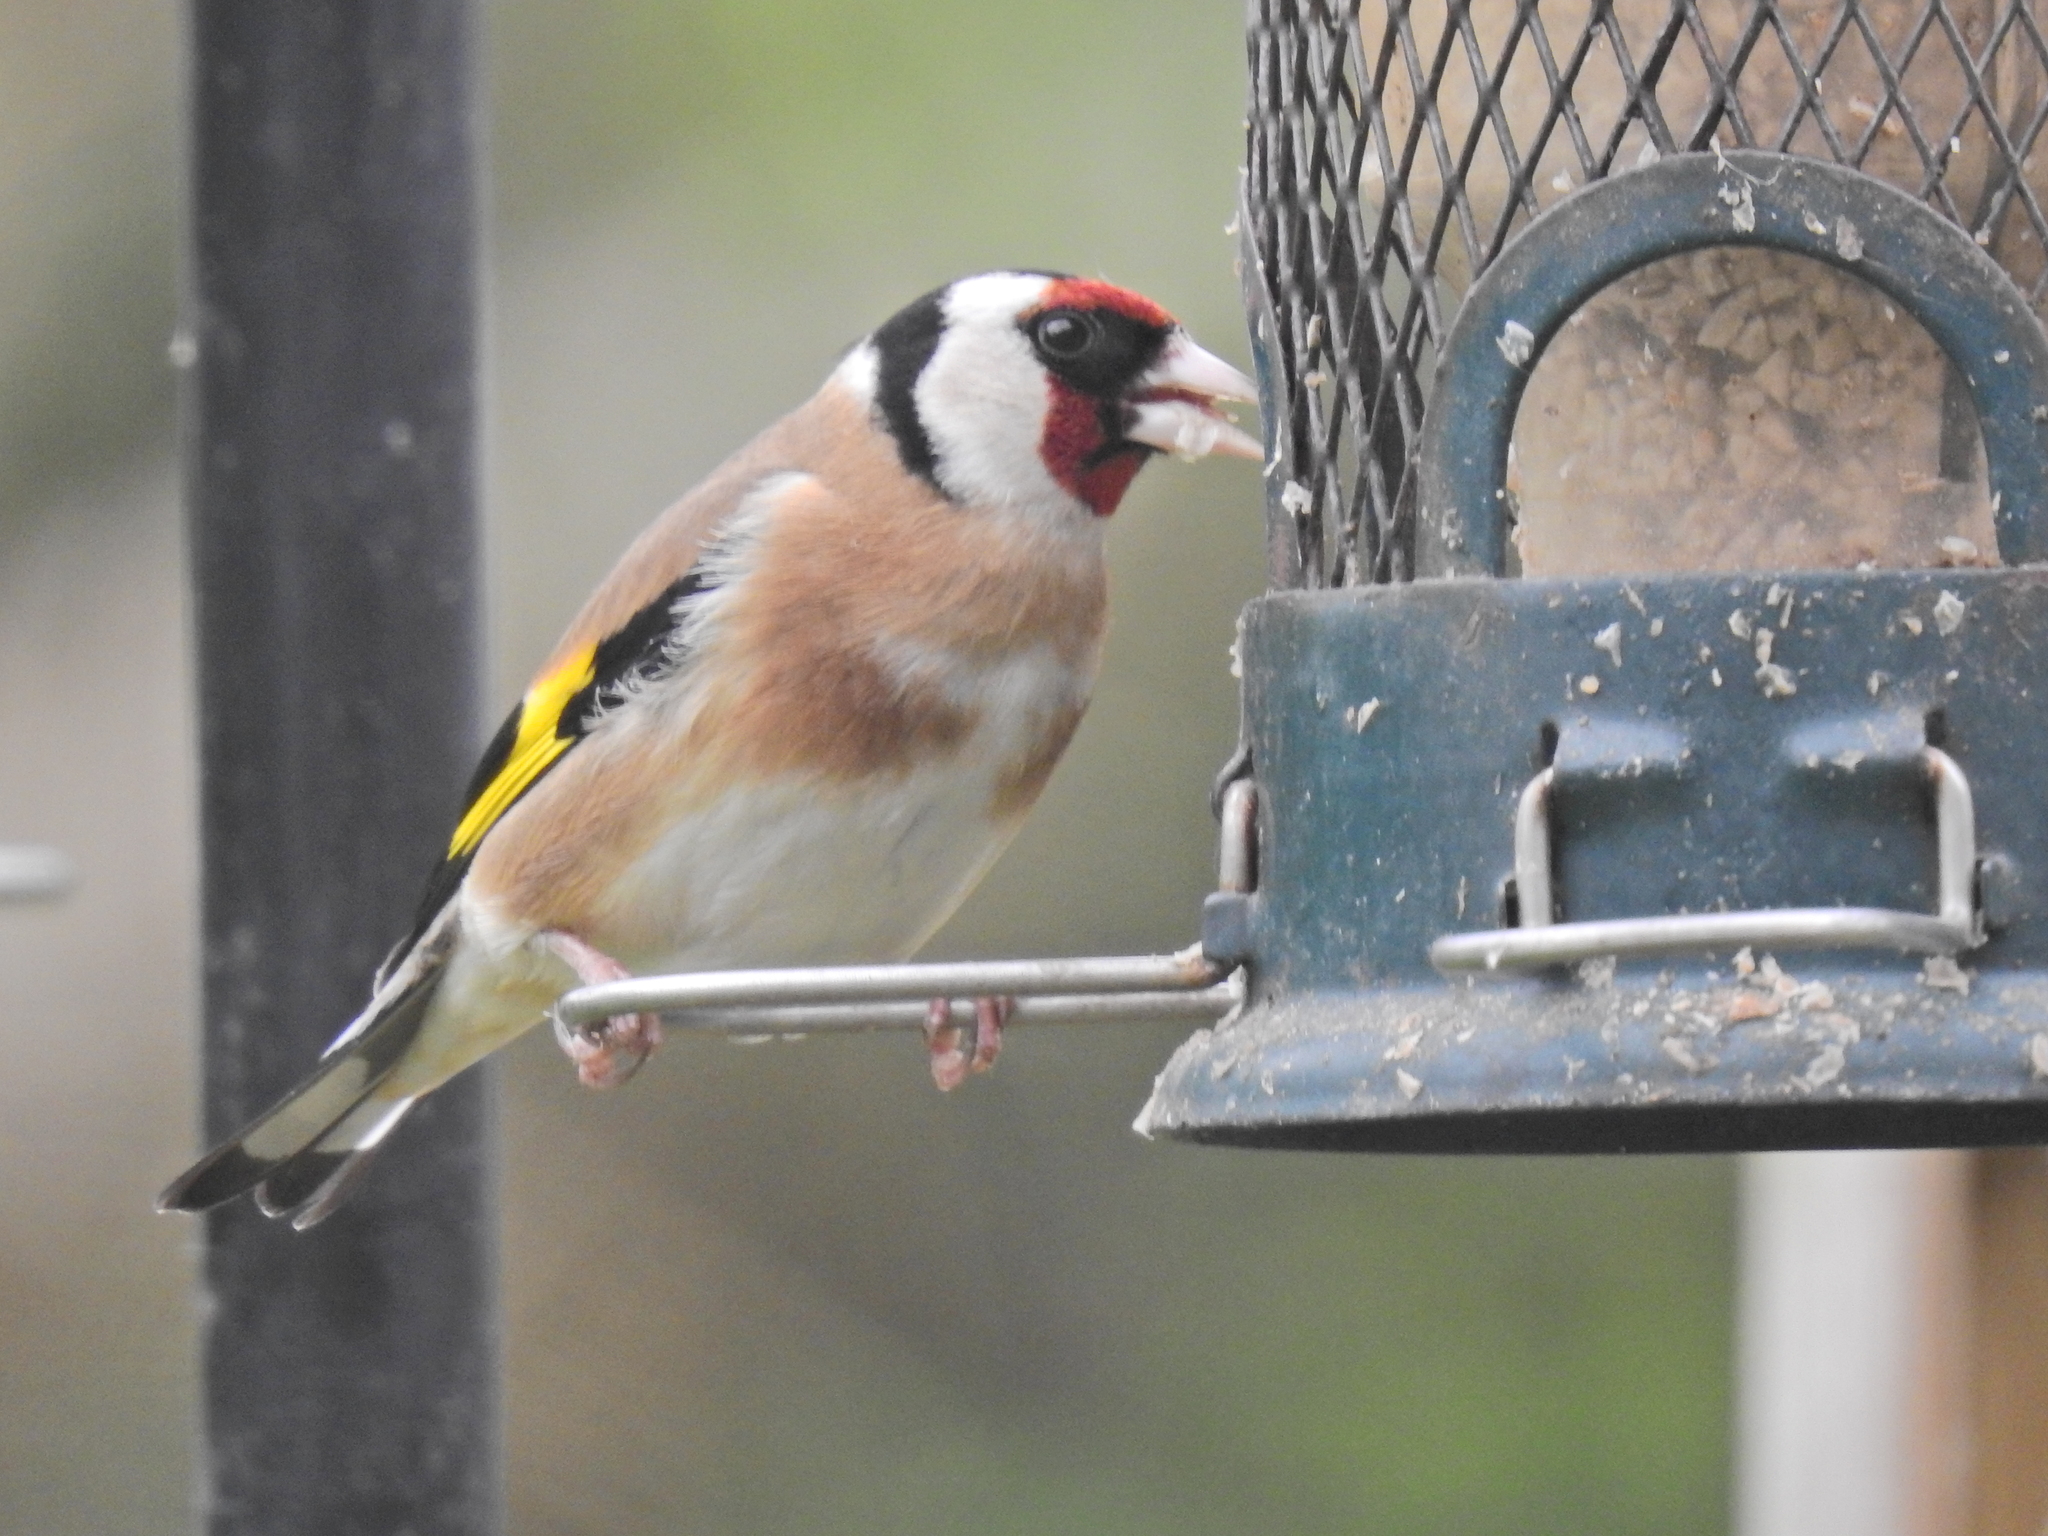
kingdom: Animalia
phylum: Chordata
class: Aves
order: Passeriformes
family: Fringillidae
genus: Carduelis
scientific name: Carduelis carduelis
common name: European goldfinch
